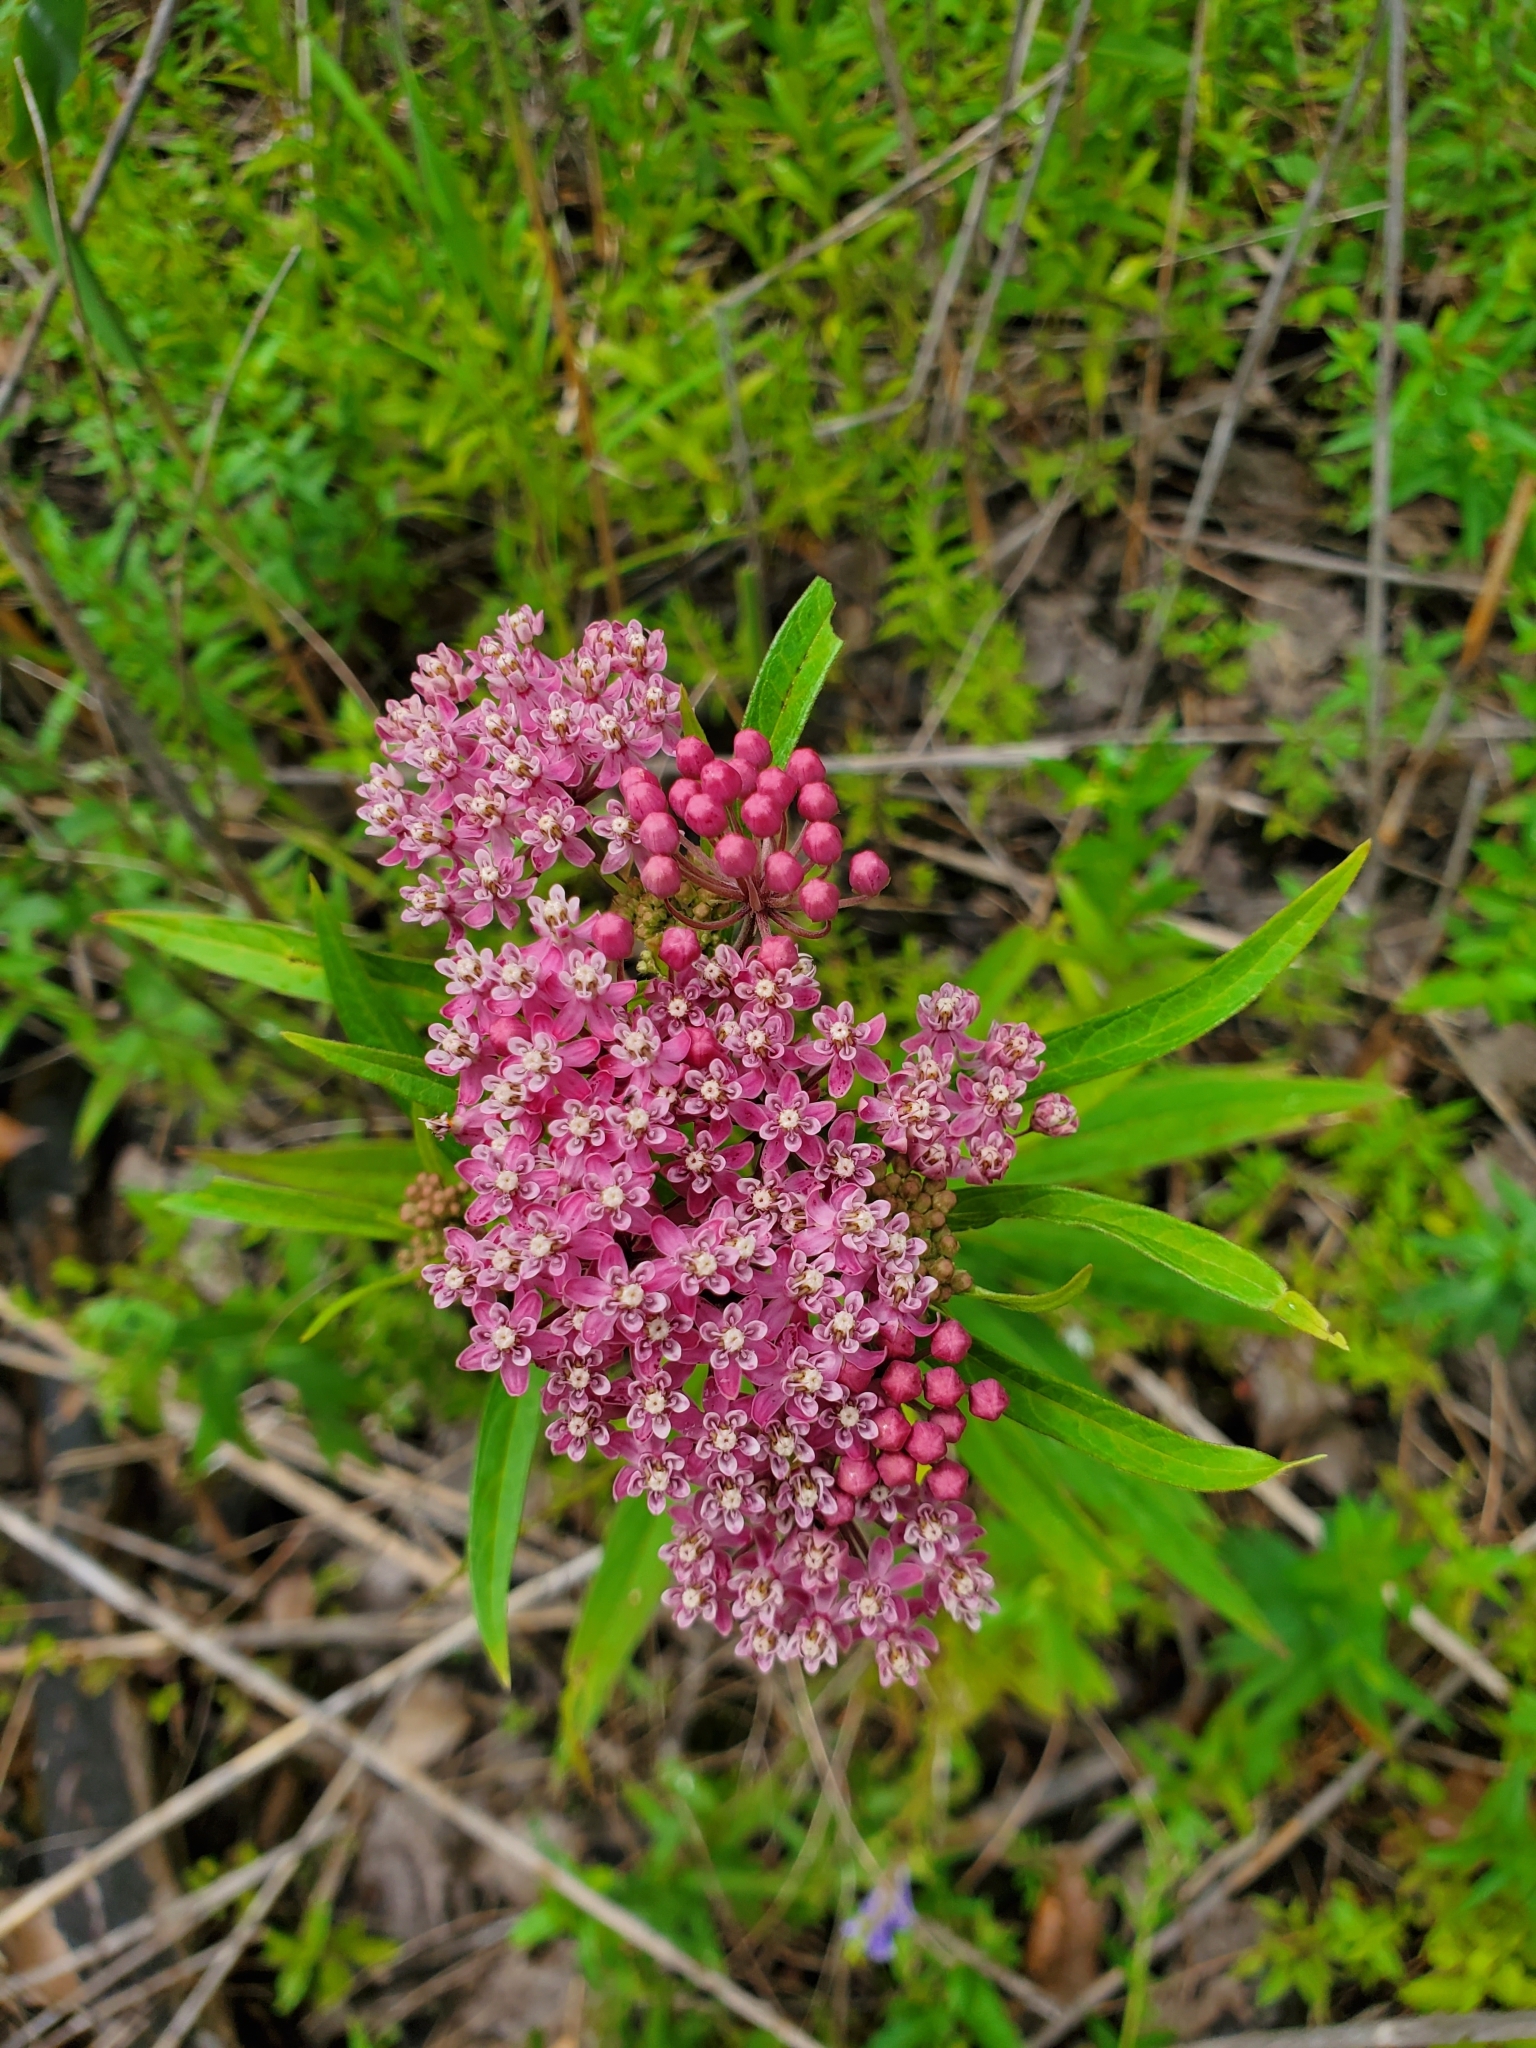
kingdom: Plantae
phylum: Tracheophyta
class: Magnoliopsida
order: Gentianales
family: Apocynaceae
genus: Asclepias
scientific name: Asclepias incarnata
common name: Swamp milkweed
